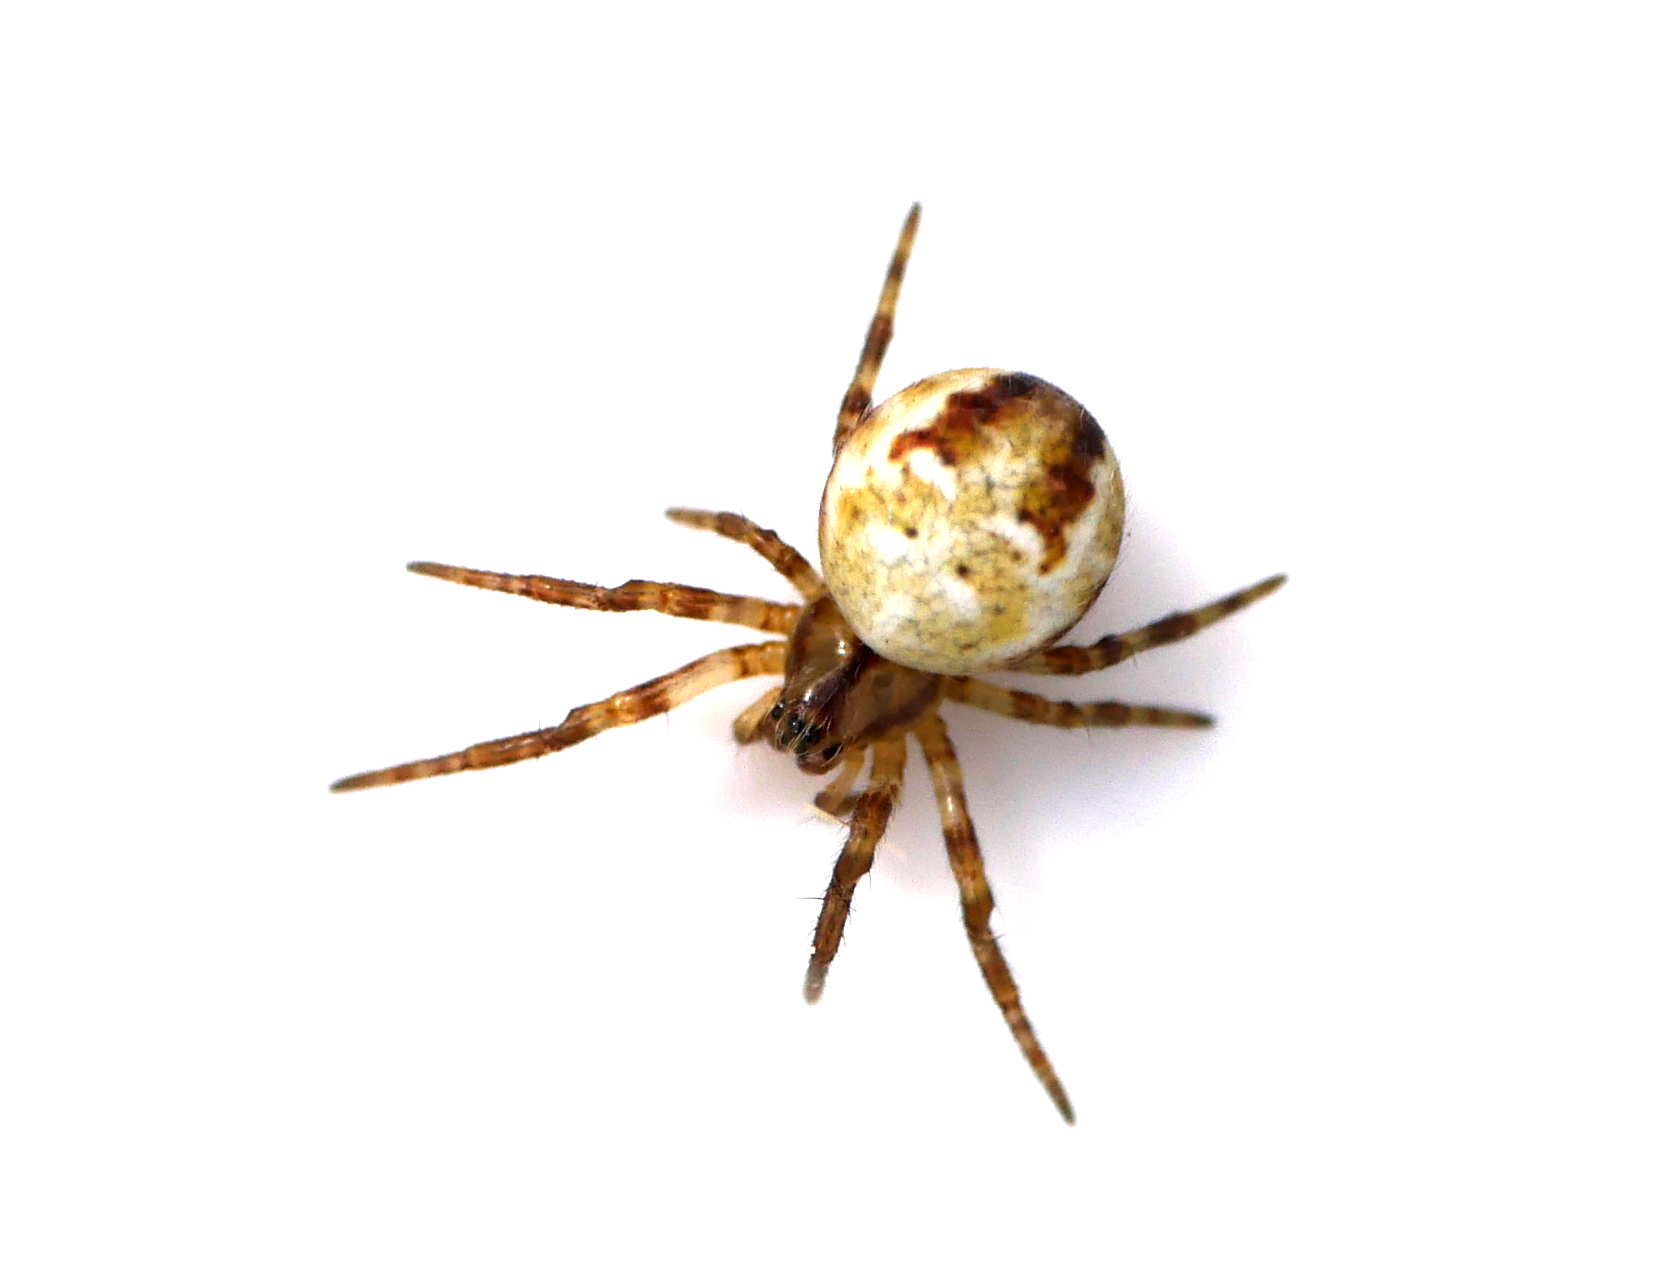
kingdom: Animalia
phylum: Arthropoda
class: Arachnida
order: Araneae
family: Araneidae
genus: Araneus
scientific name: Araneus quadratus
